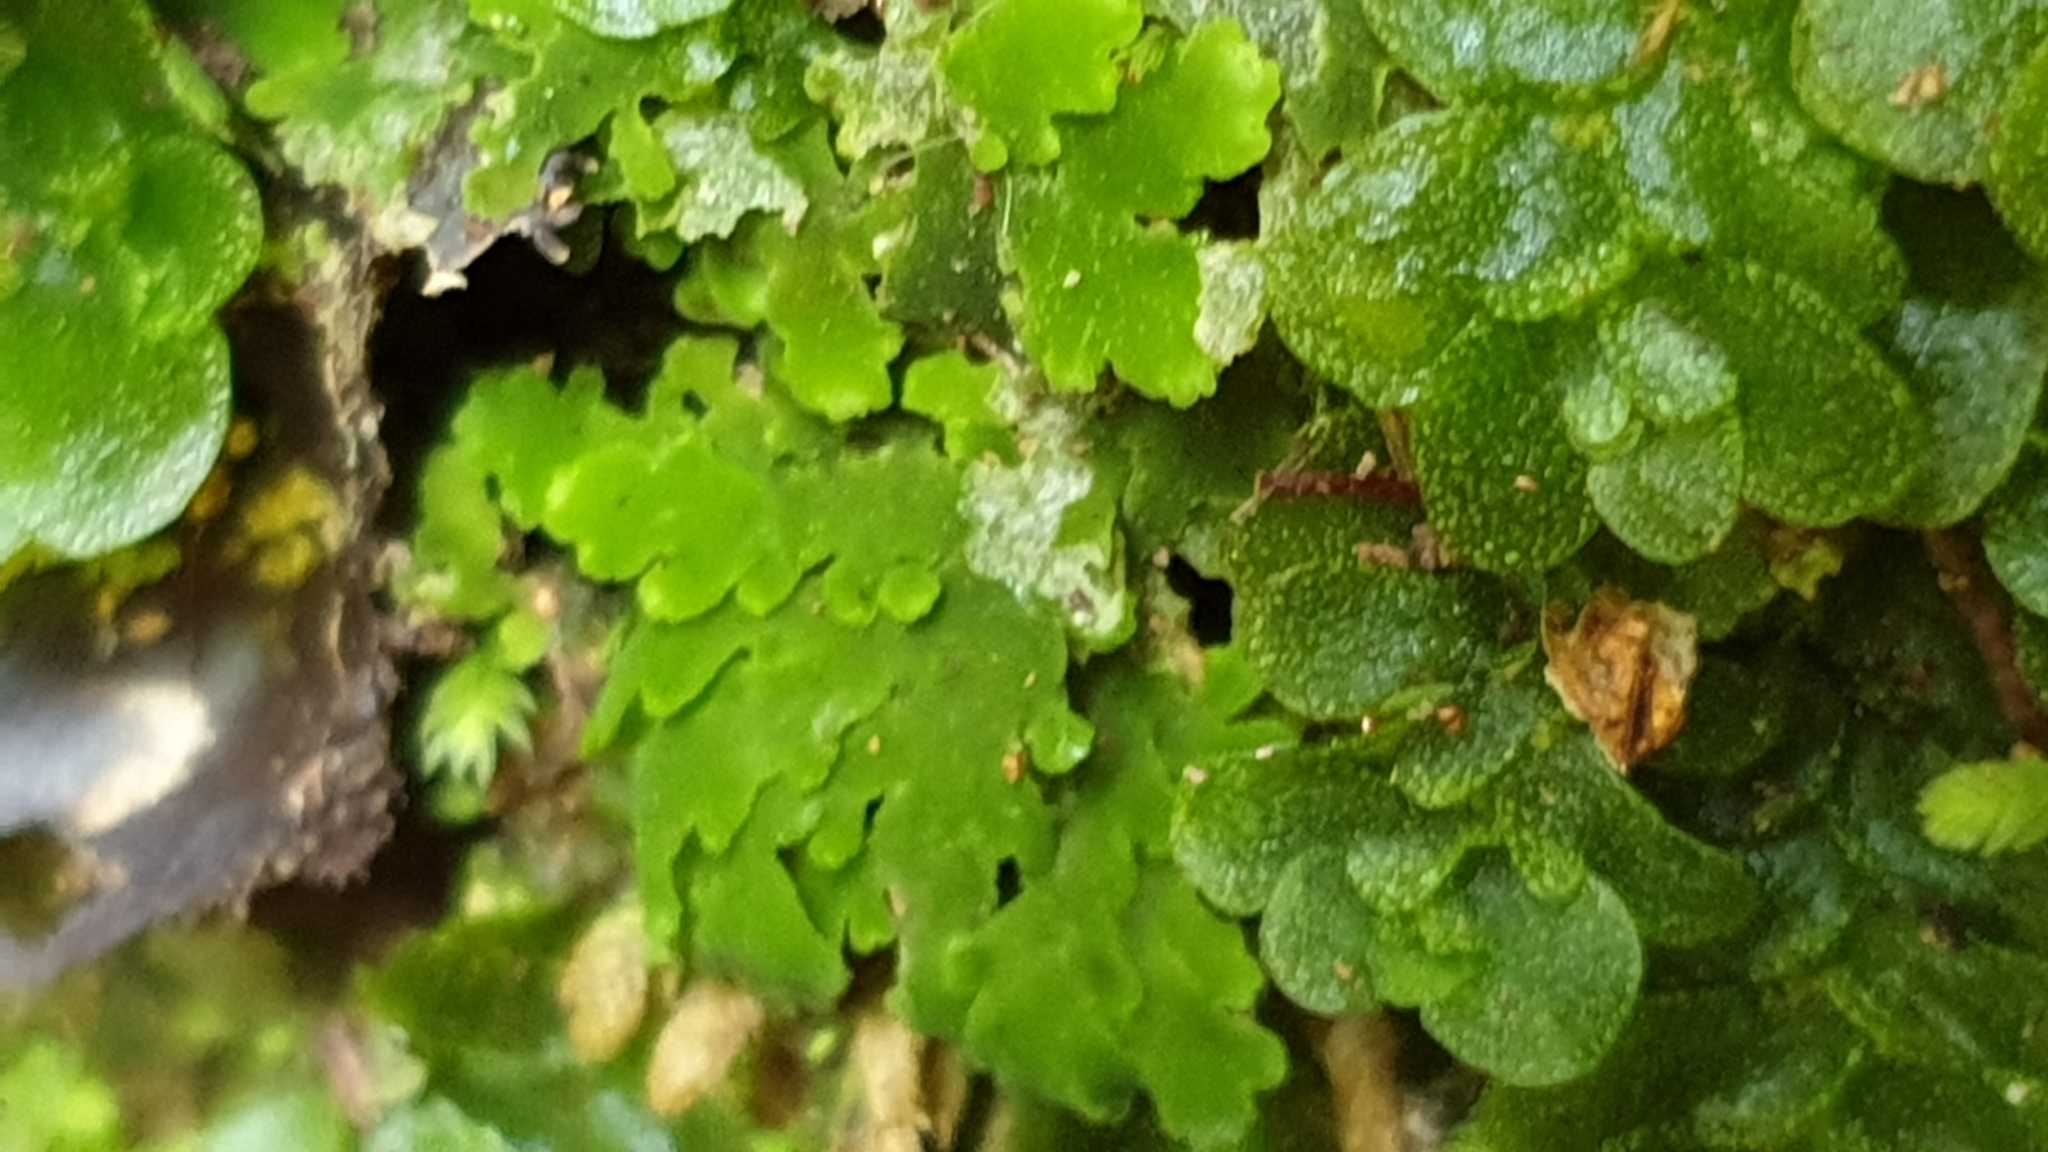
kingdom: Plantae
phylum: Marchantiophyta
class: Jungermanniopsida
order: Metzgeriales
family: Aneuraceae
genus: Riccardia
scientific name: Riccardia colensoi
